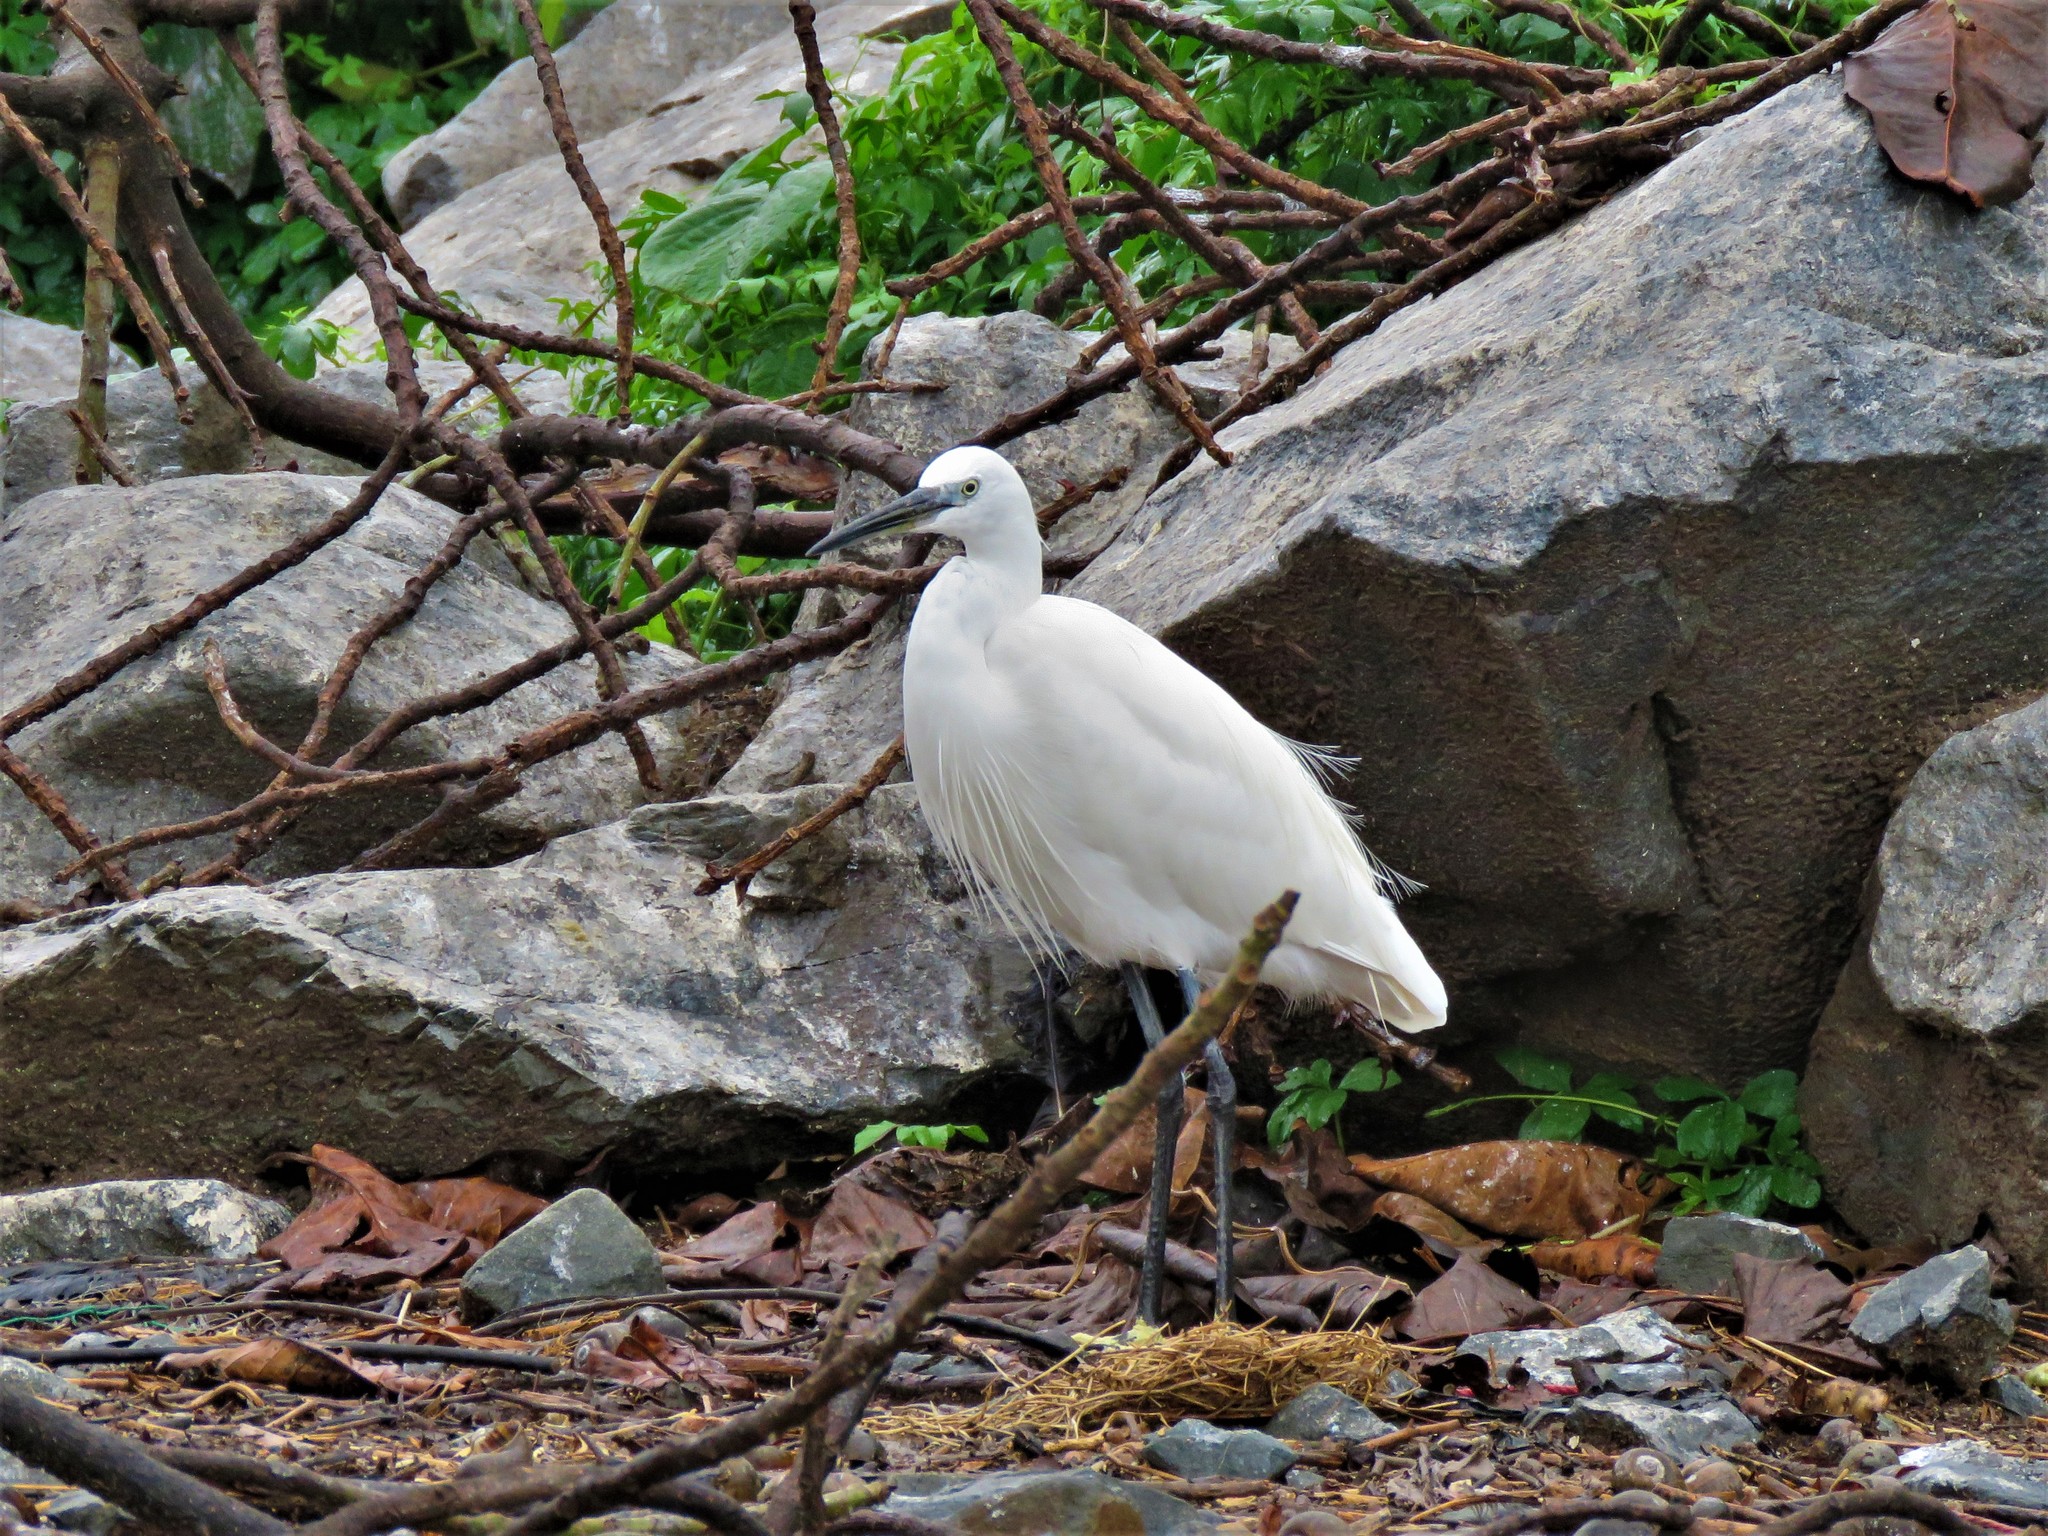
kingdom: Animalia
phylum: Chordata
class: Aves
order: Pelecaniformes
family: Ardeidae
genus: Egretta
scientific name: Egretta garzetta
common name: Little egret
